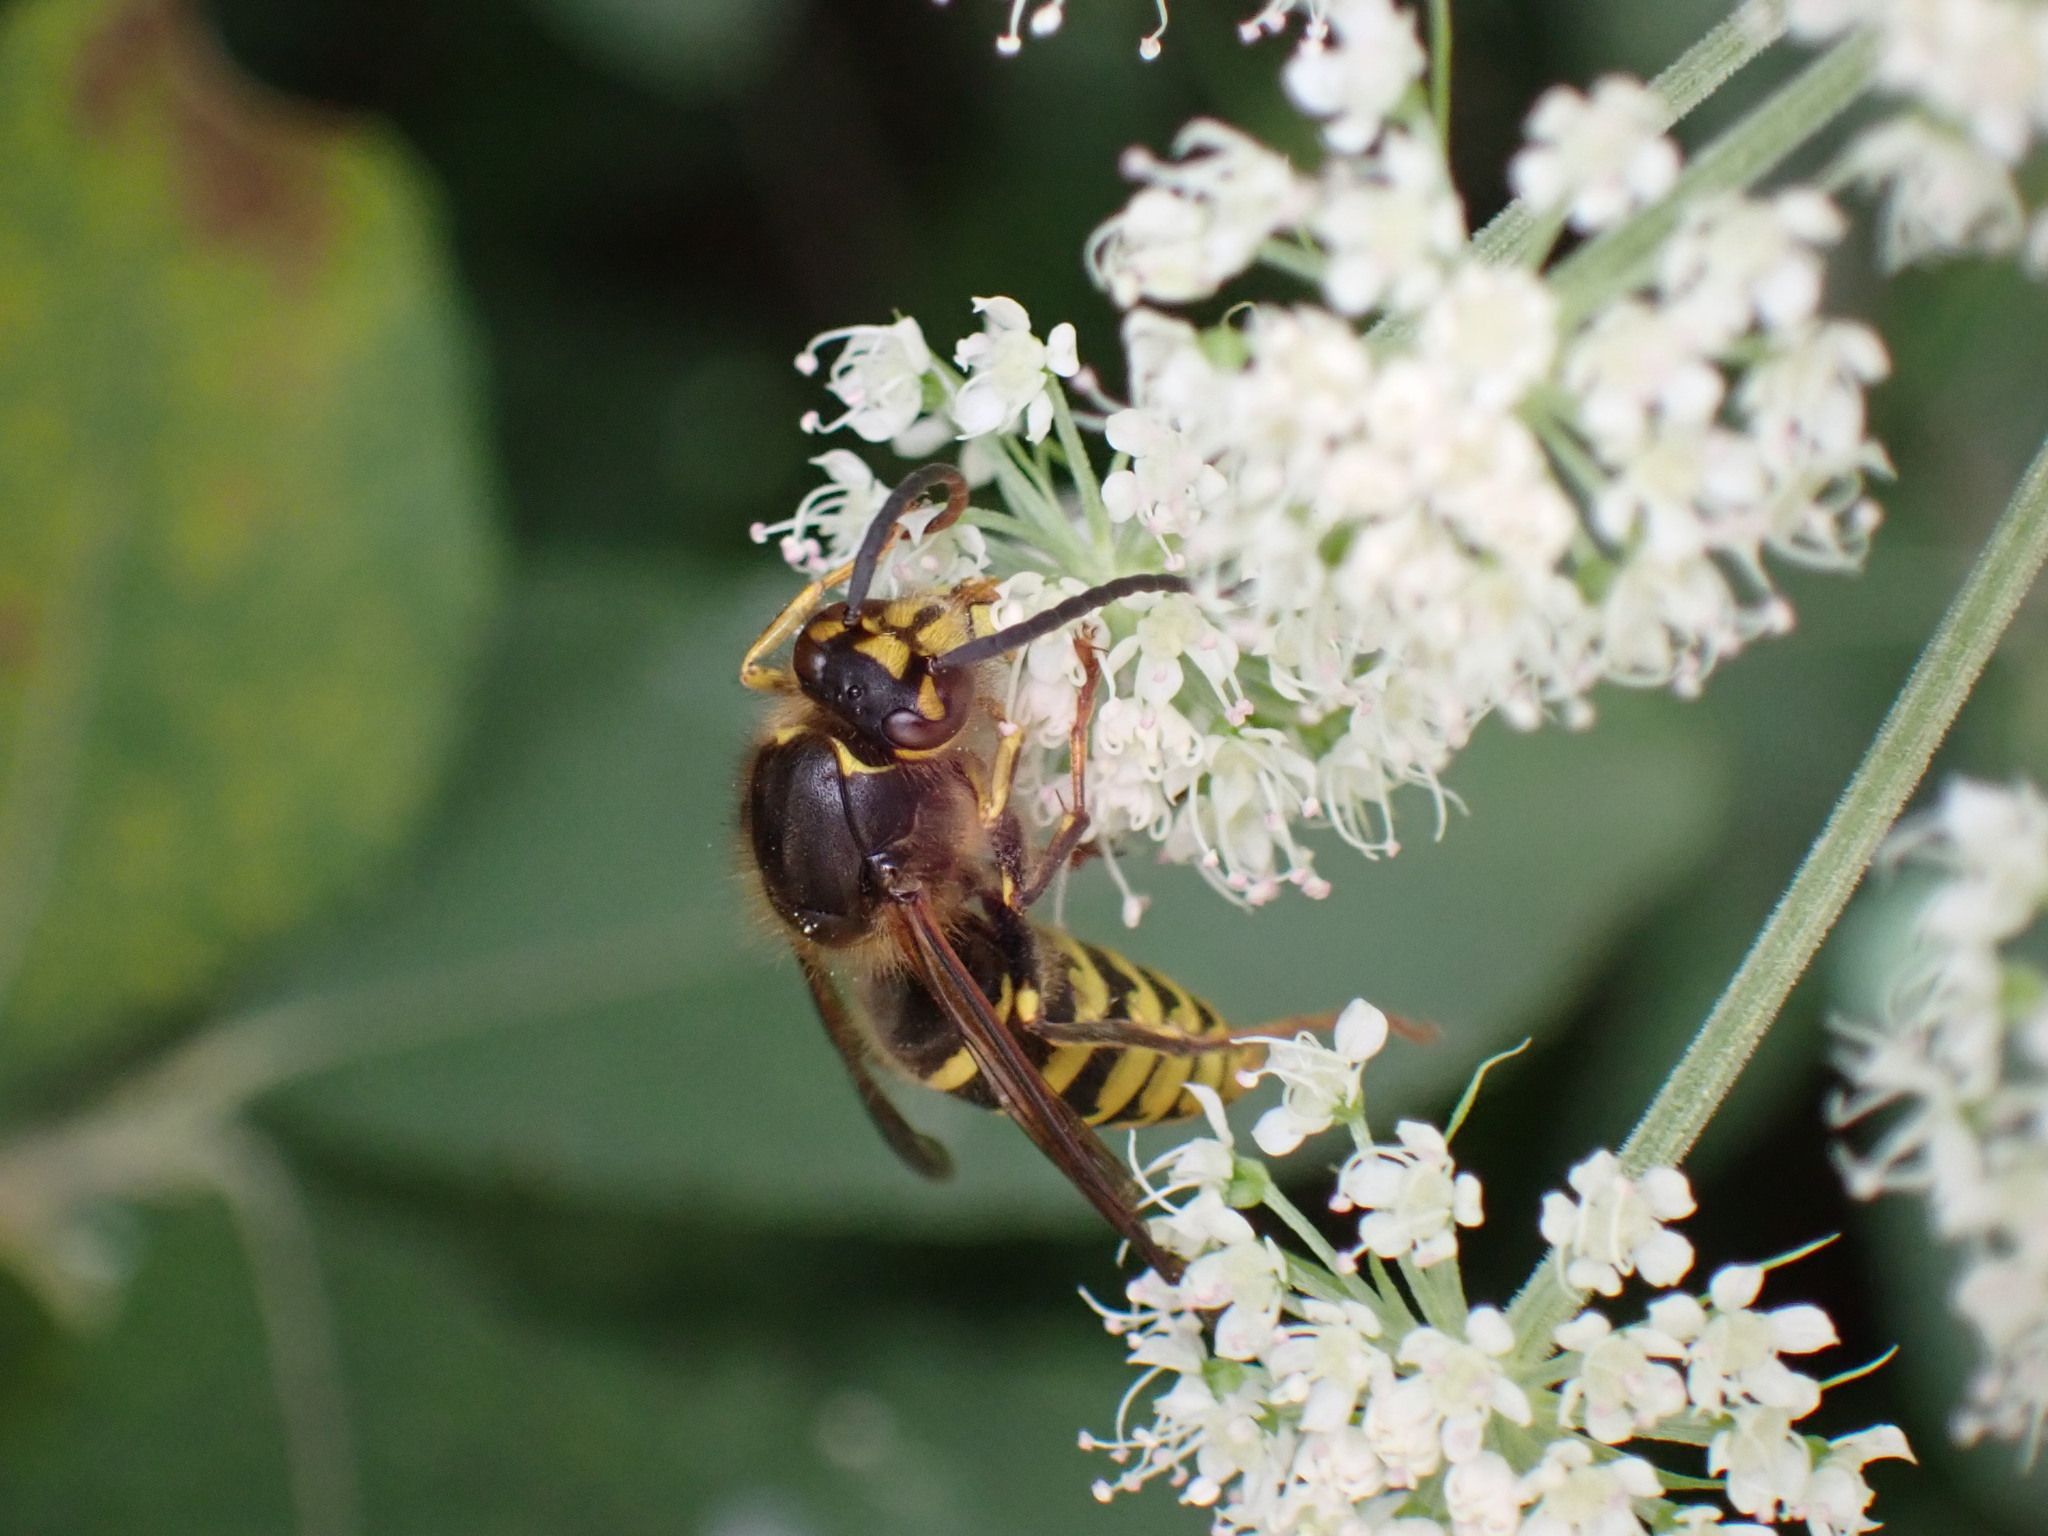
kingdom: Animalia
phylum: Arthropoda
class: Insecta
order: Hymenoptera
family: Vespidae
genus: Dolichovespula
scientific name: Dolichovespula media
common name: Median wasp
